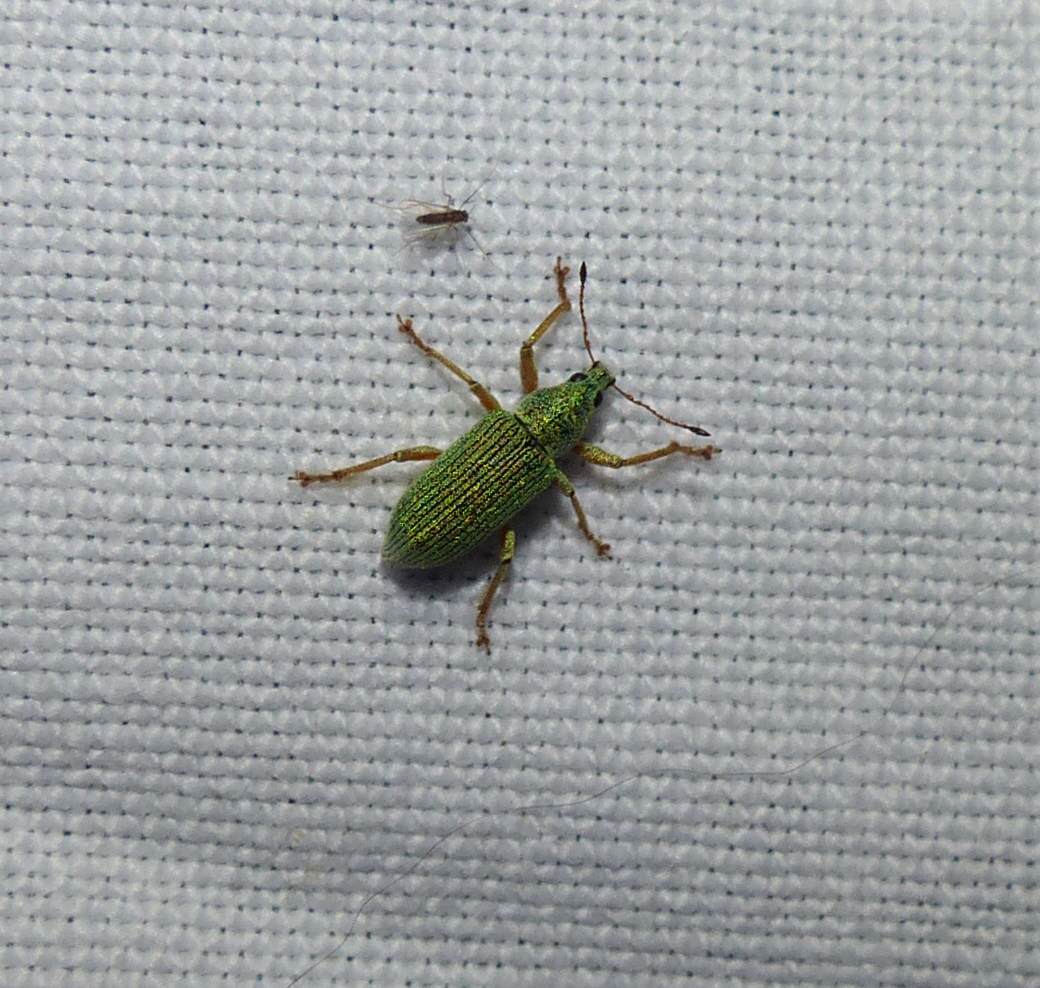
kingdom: Animalia
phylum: Arthropoda
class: Insecta
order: Coleoptera
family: Curculionidae
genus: Polydrusus
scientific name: Polydrusus formosus
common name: Weevil
